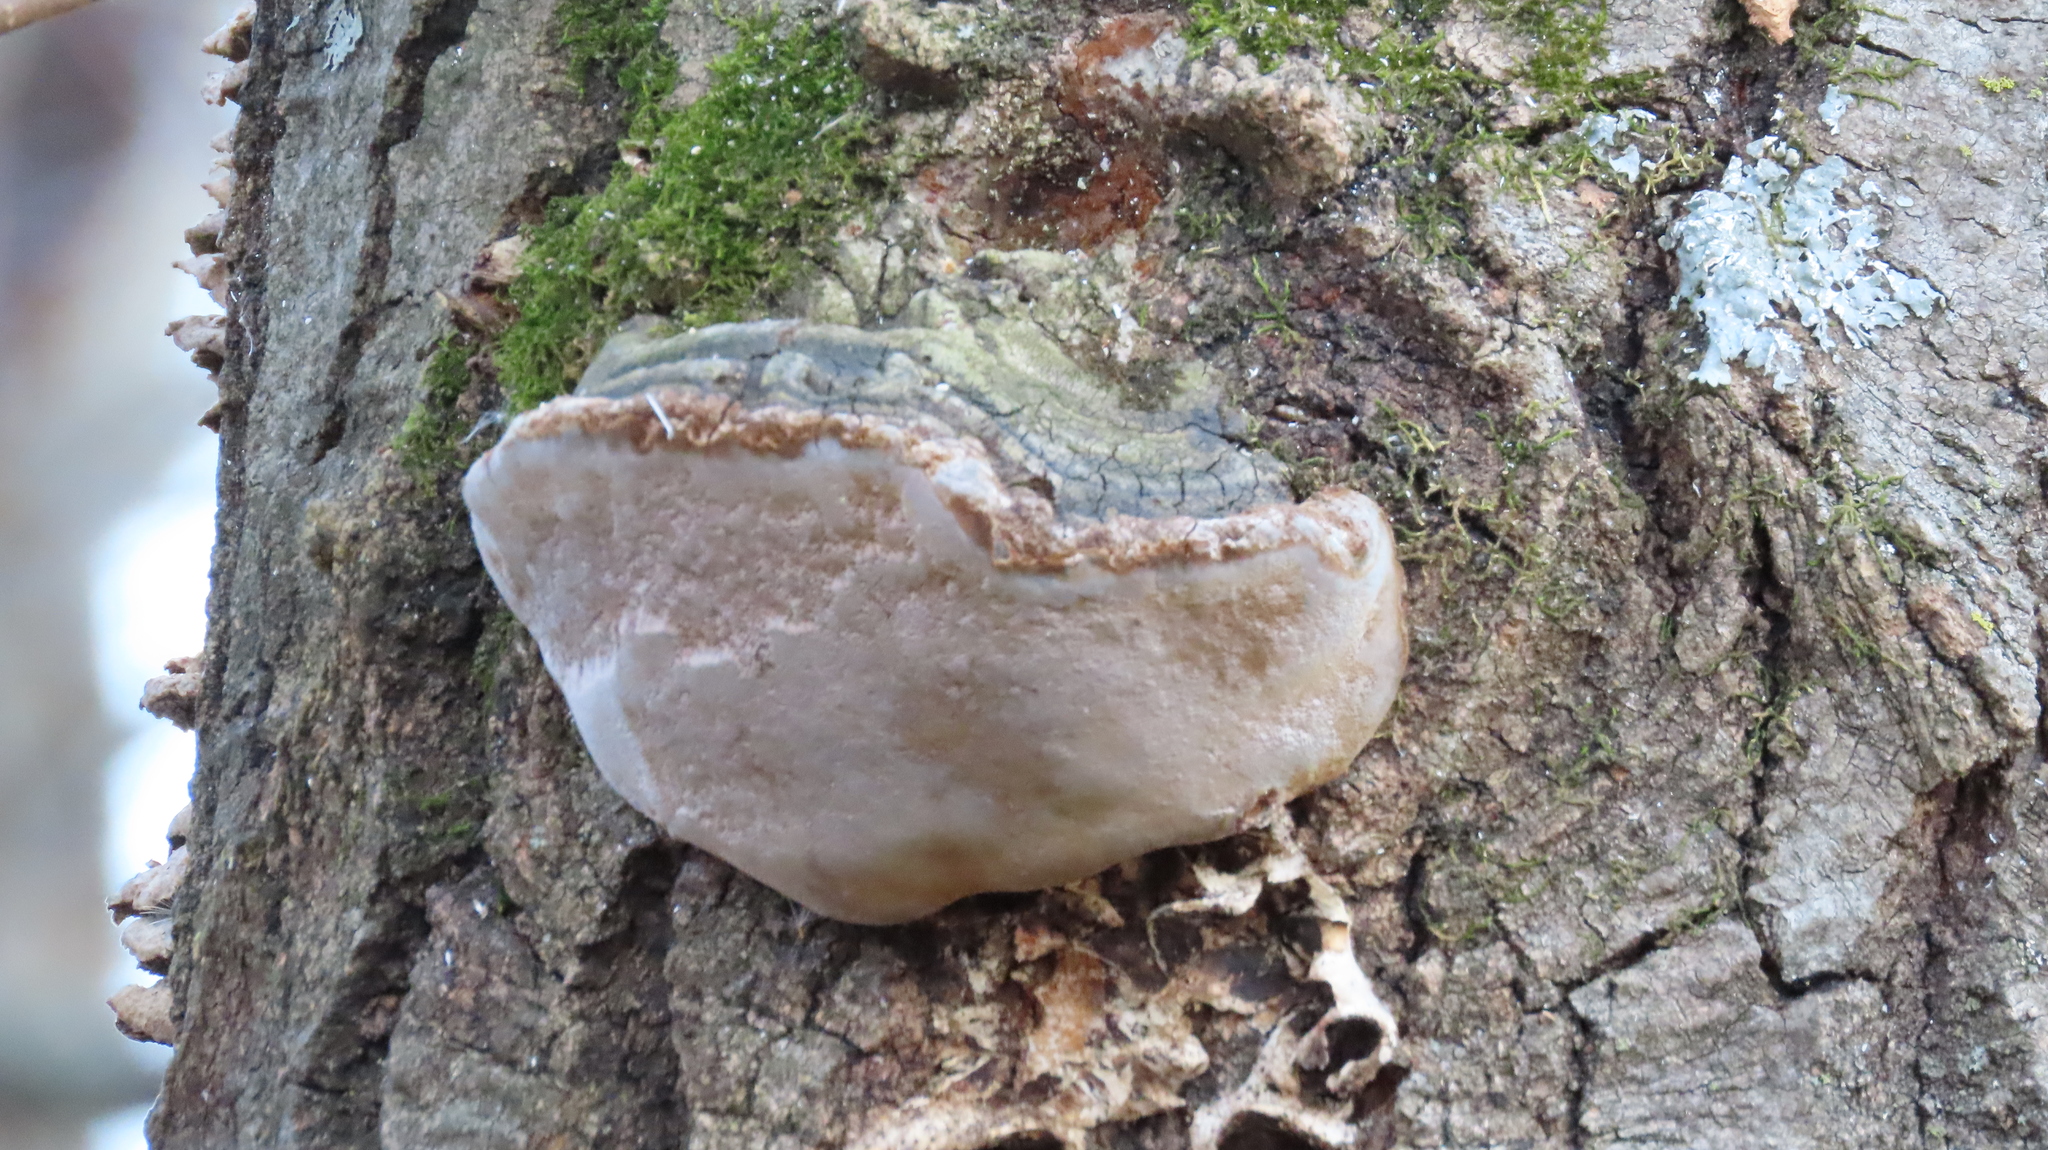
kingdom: Fungi
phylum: Basidiomycota
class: Agaricomycetes
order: Polyporales
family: Polyporaceae
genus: Fomes
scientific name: Fomes fomentarius
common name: Hoof fungus
